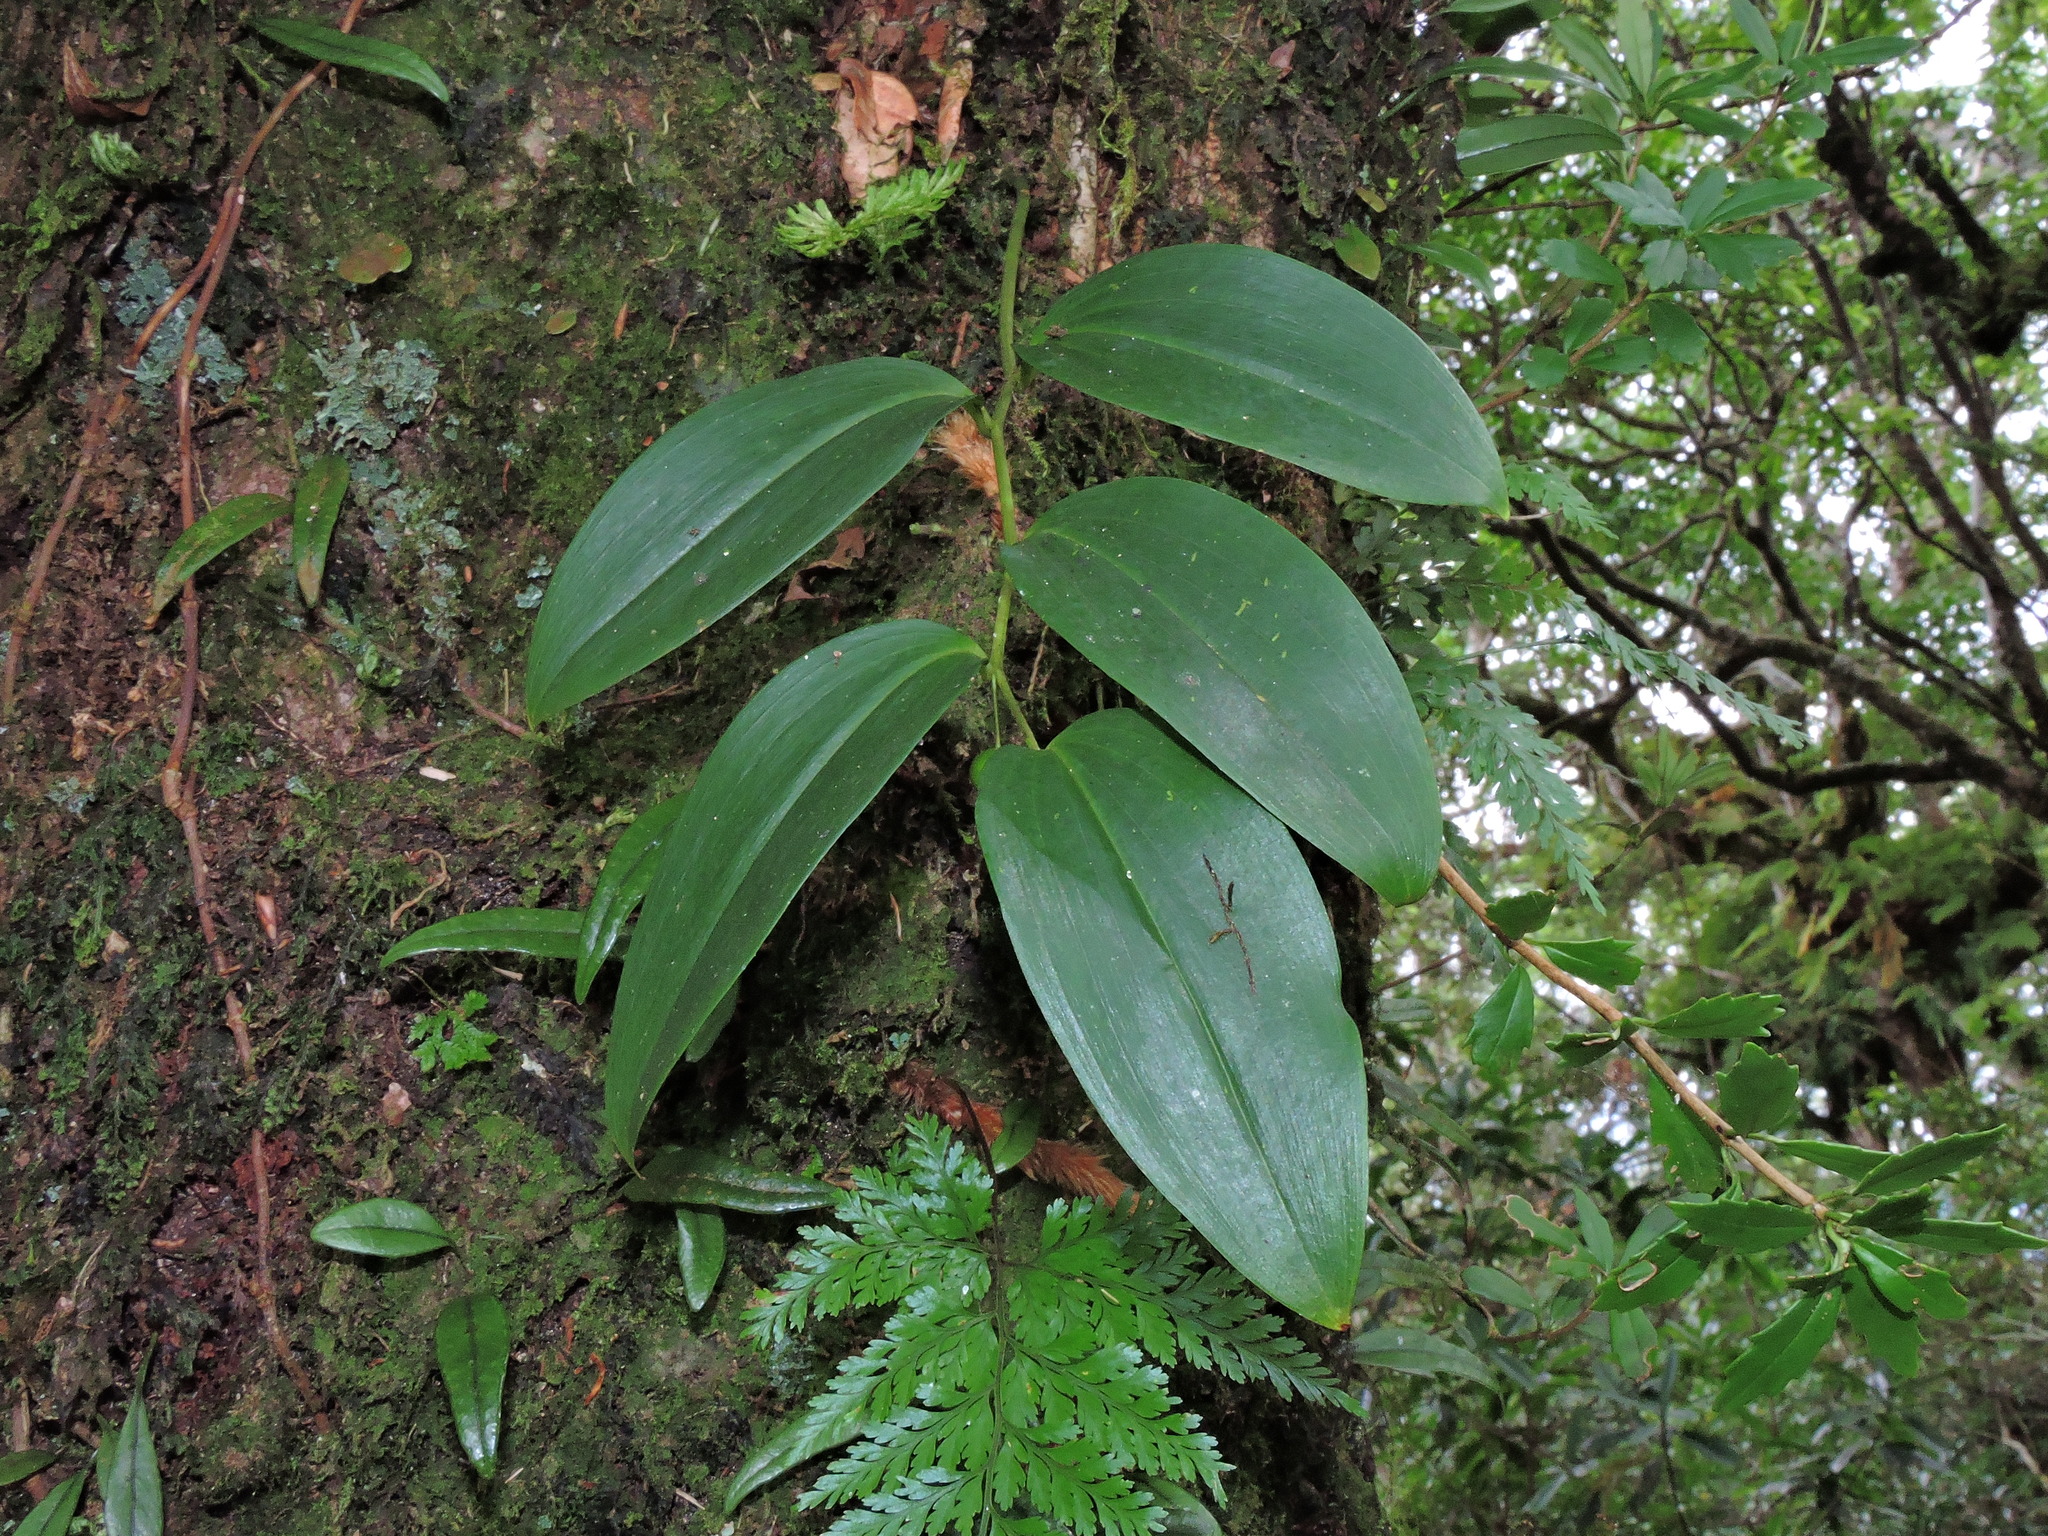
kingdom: Plantae
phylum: Tracheophyta
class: Liliopsida
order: Asparagales
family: Asparagaceae
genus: Heteropolygonatum
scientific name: Heteropolygonatum alte-lobatum
